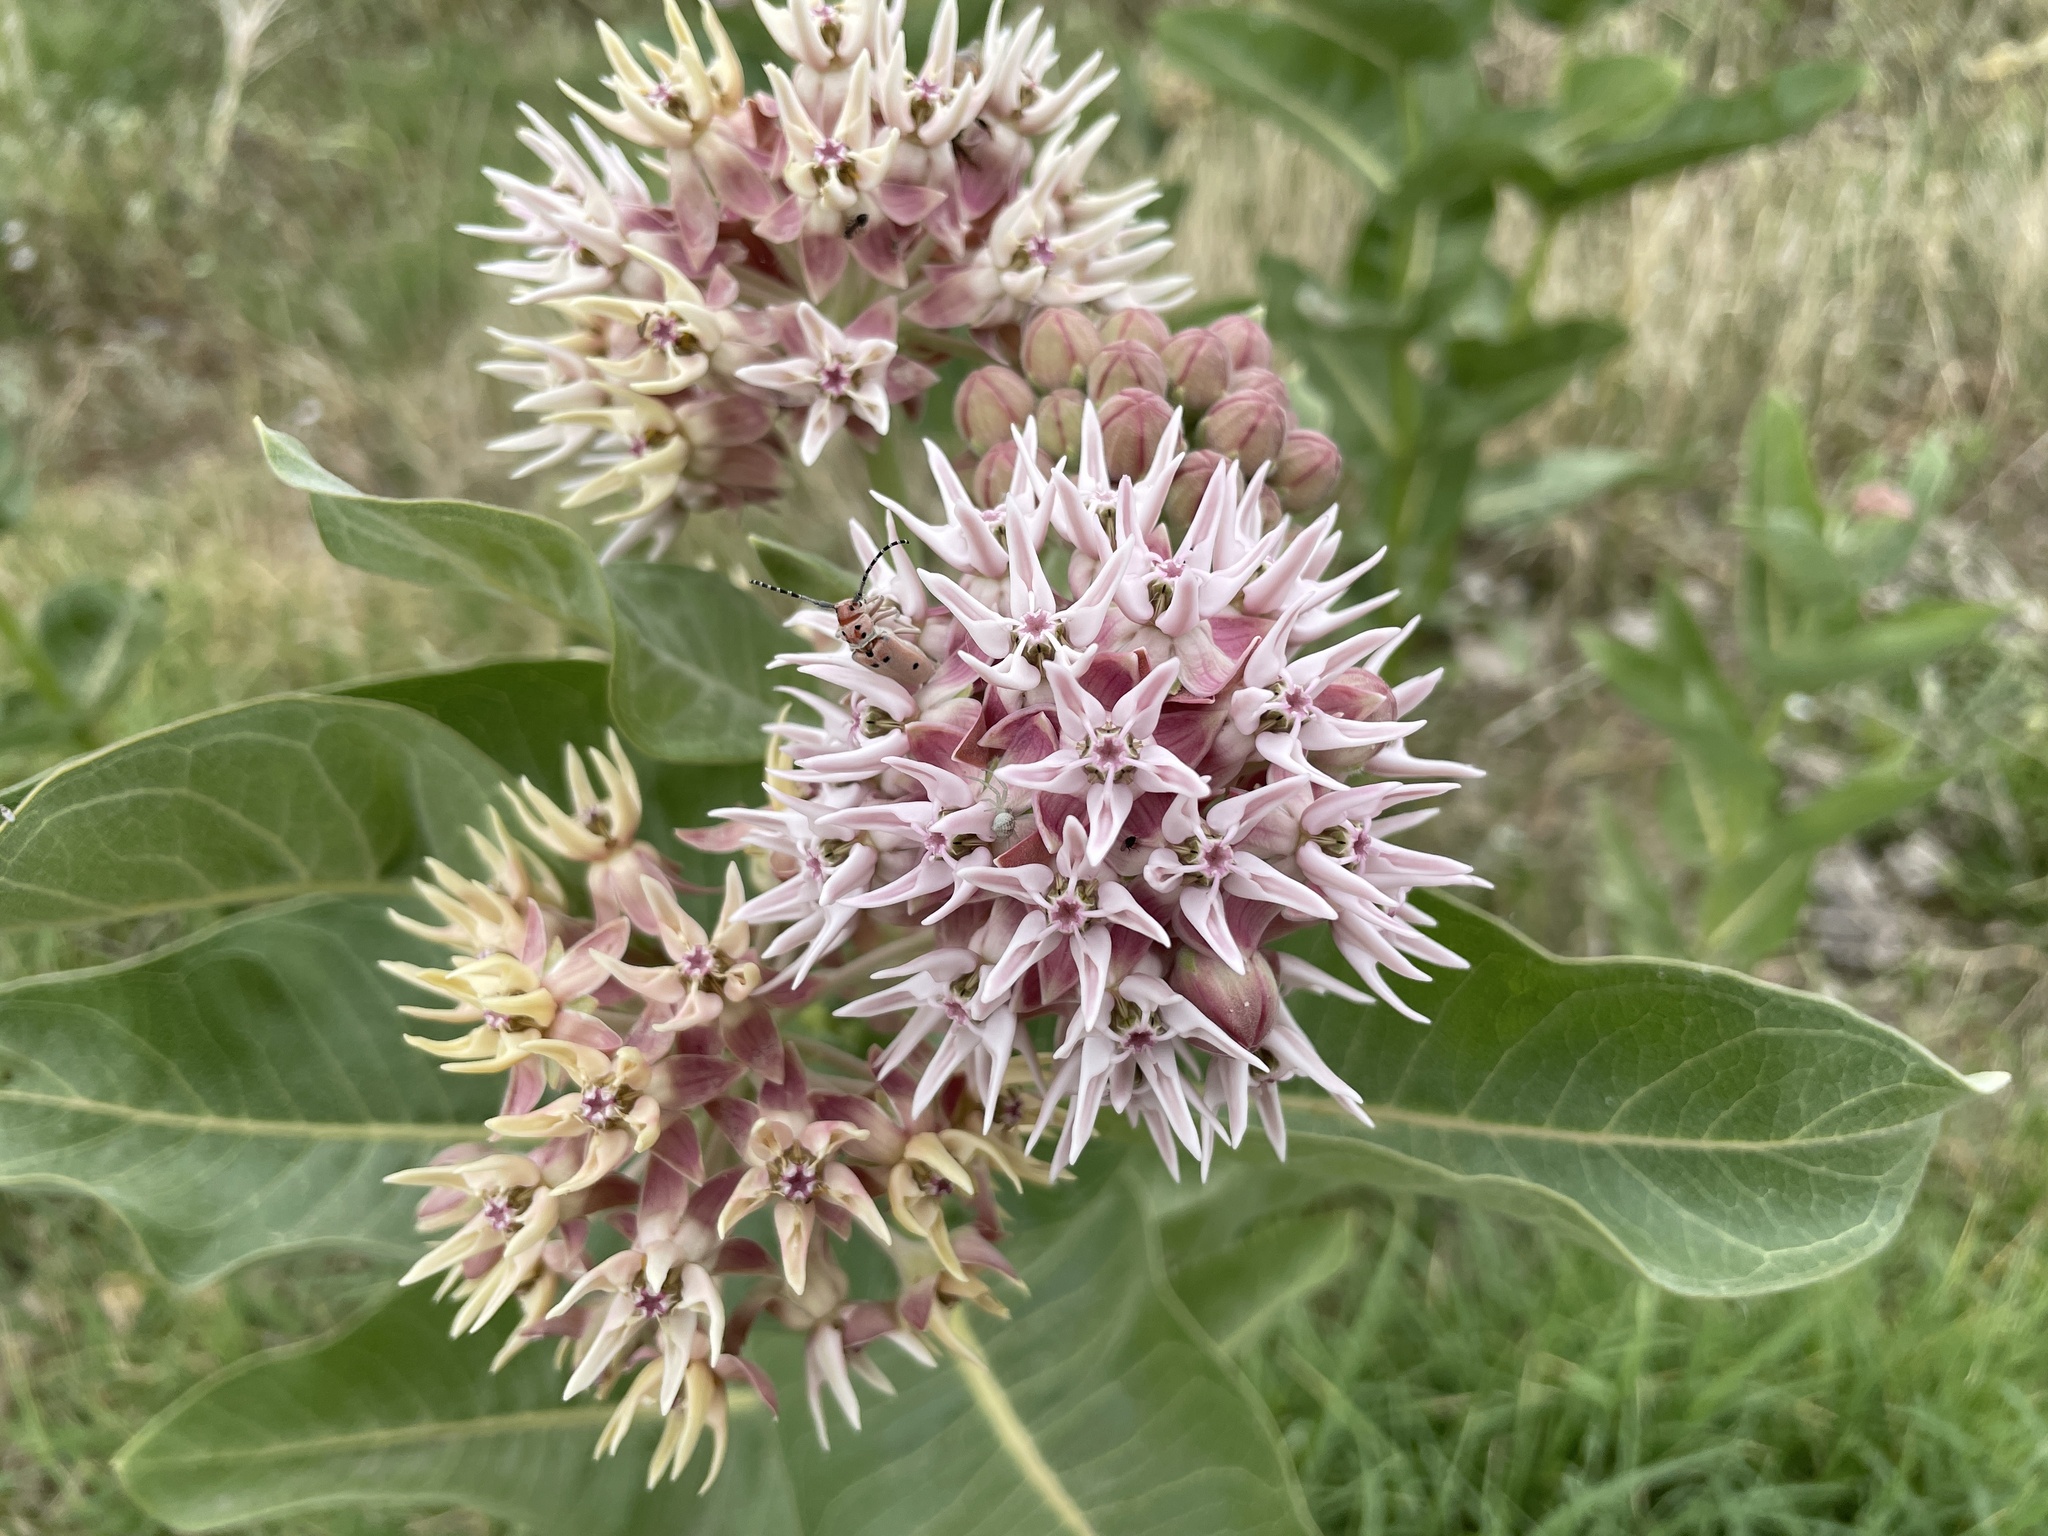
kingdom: Plantae
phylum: Tracheophyta
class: Magnoliopsida
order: Gentianales
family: Apocynaceae
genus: Asclepias
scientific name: Asclepias speciosa
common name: Showy milkweed
